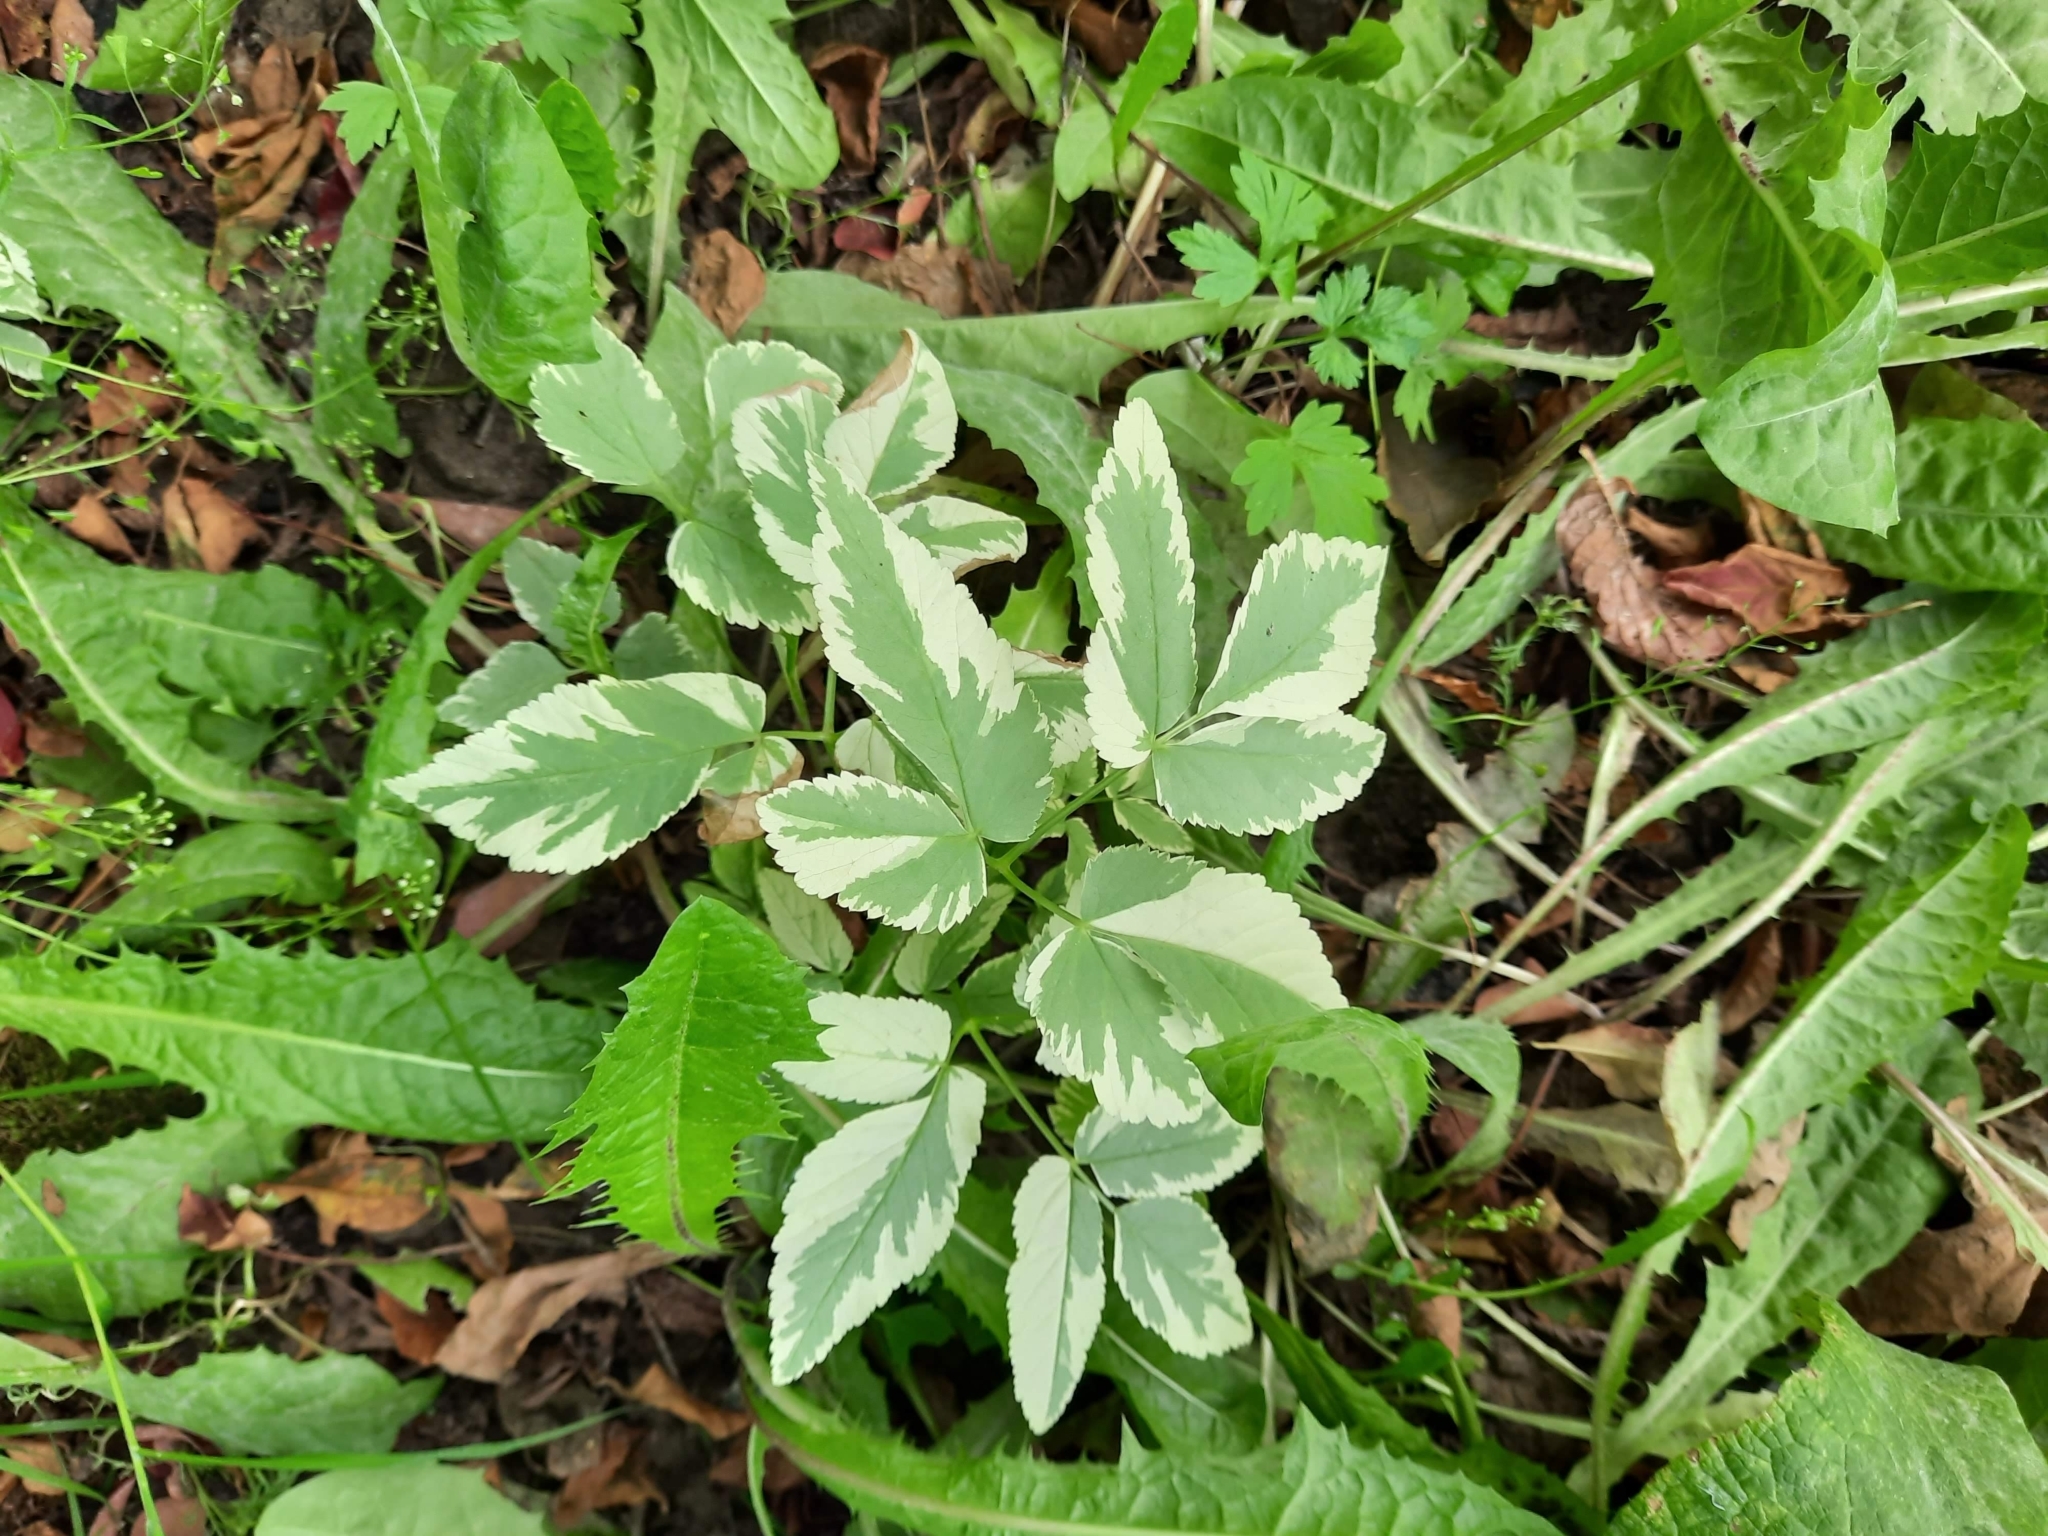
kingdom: Plantae
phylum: Tracheophyta
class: Magnoliopsida
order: Apiales
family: Apiaceae
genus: Aegopodium
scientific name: Aegopodium podagraria
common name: Ground-elder
